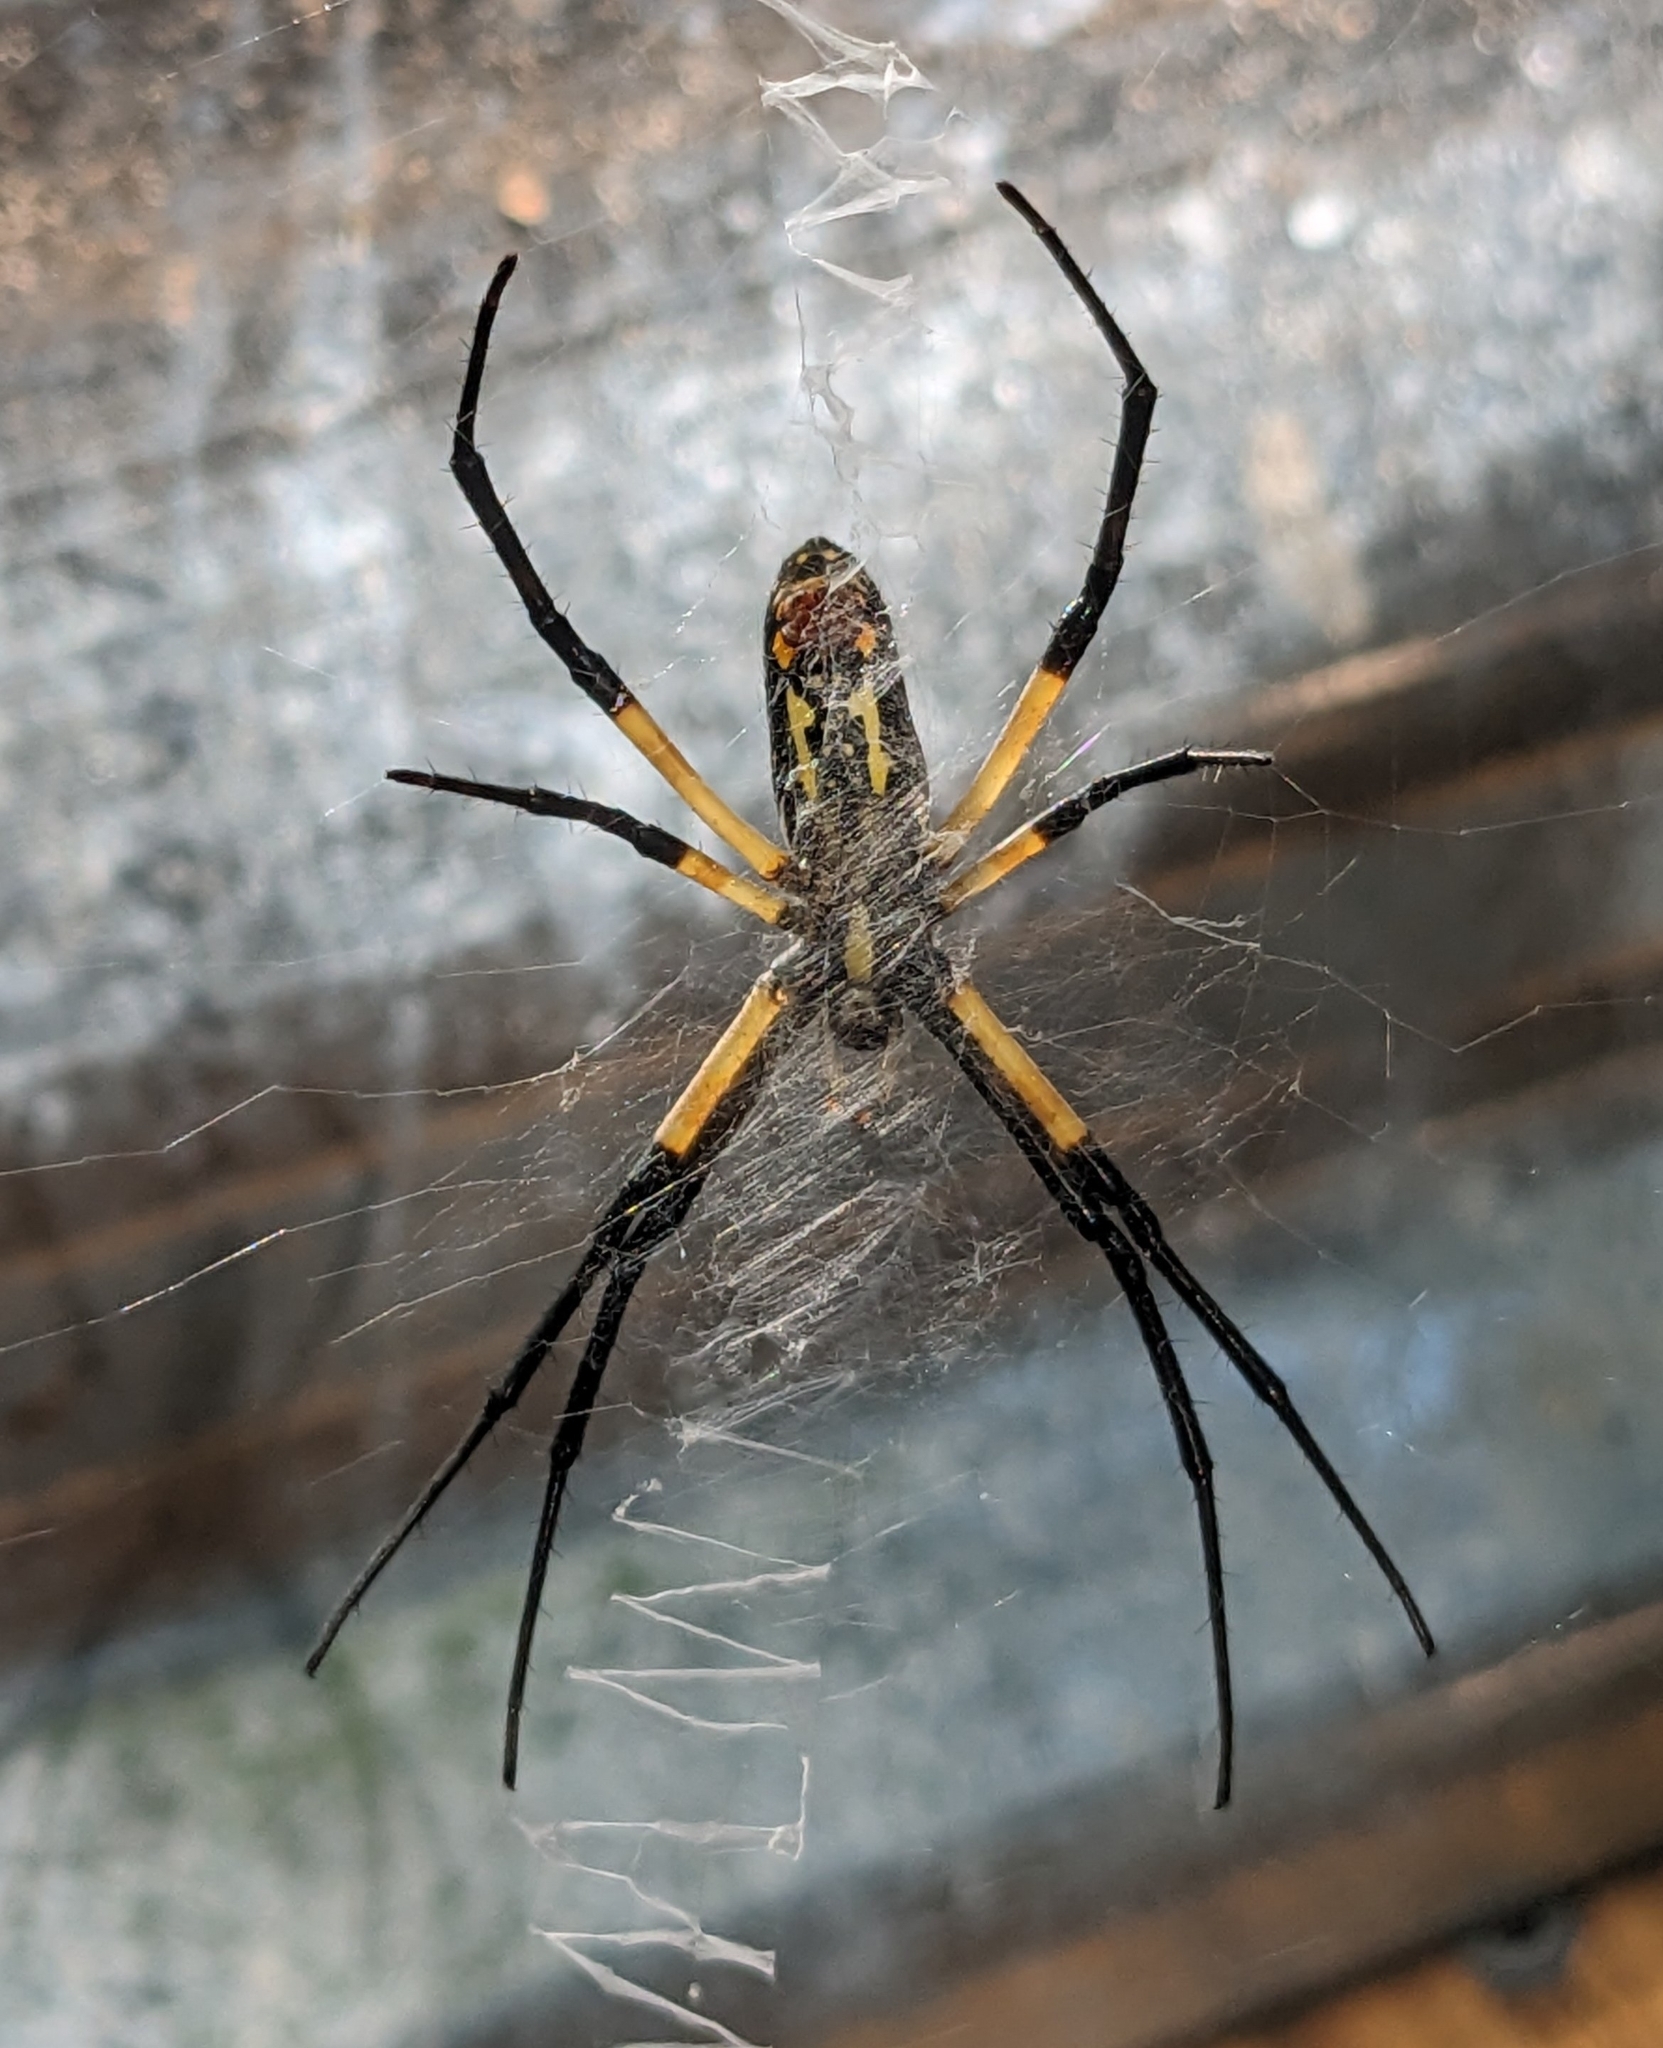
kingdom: Animalia
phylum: Arthropoda
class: Arachnida
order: Araneae
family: Araneidae
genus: Argiope
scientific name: Argiope aurantia
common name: Orb weavers
